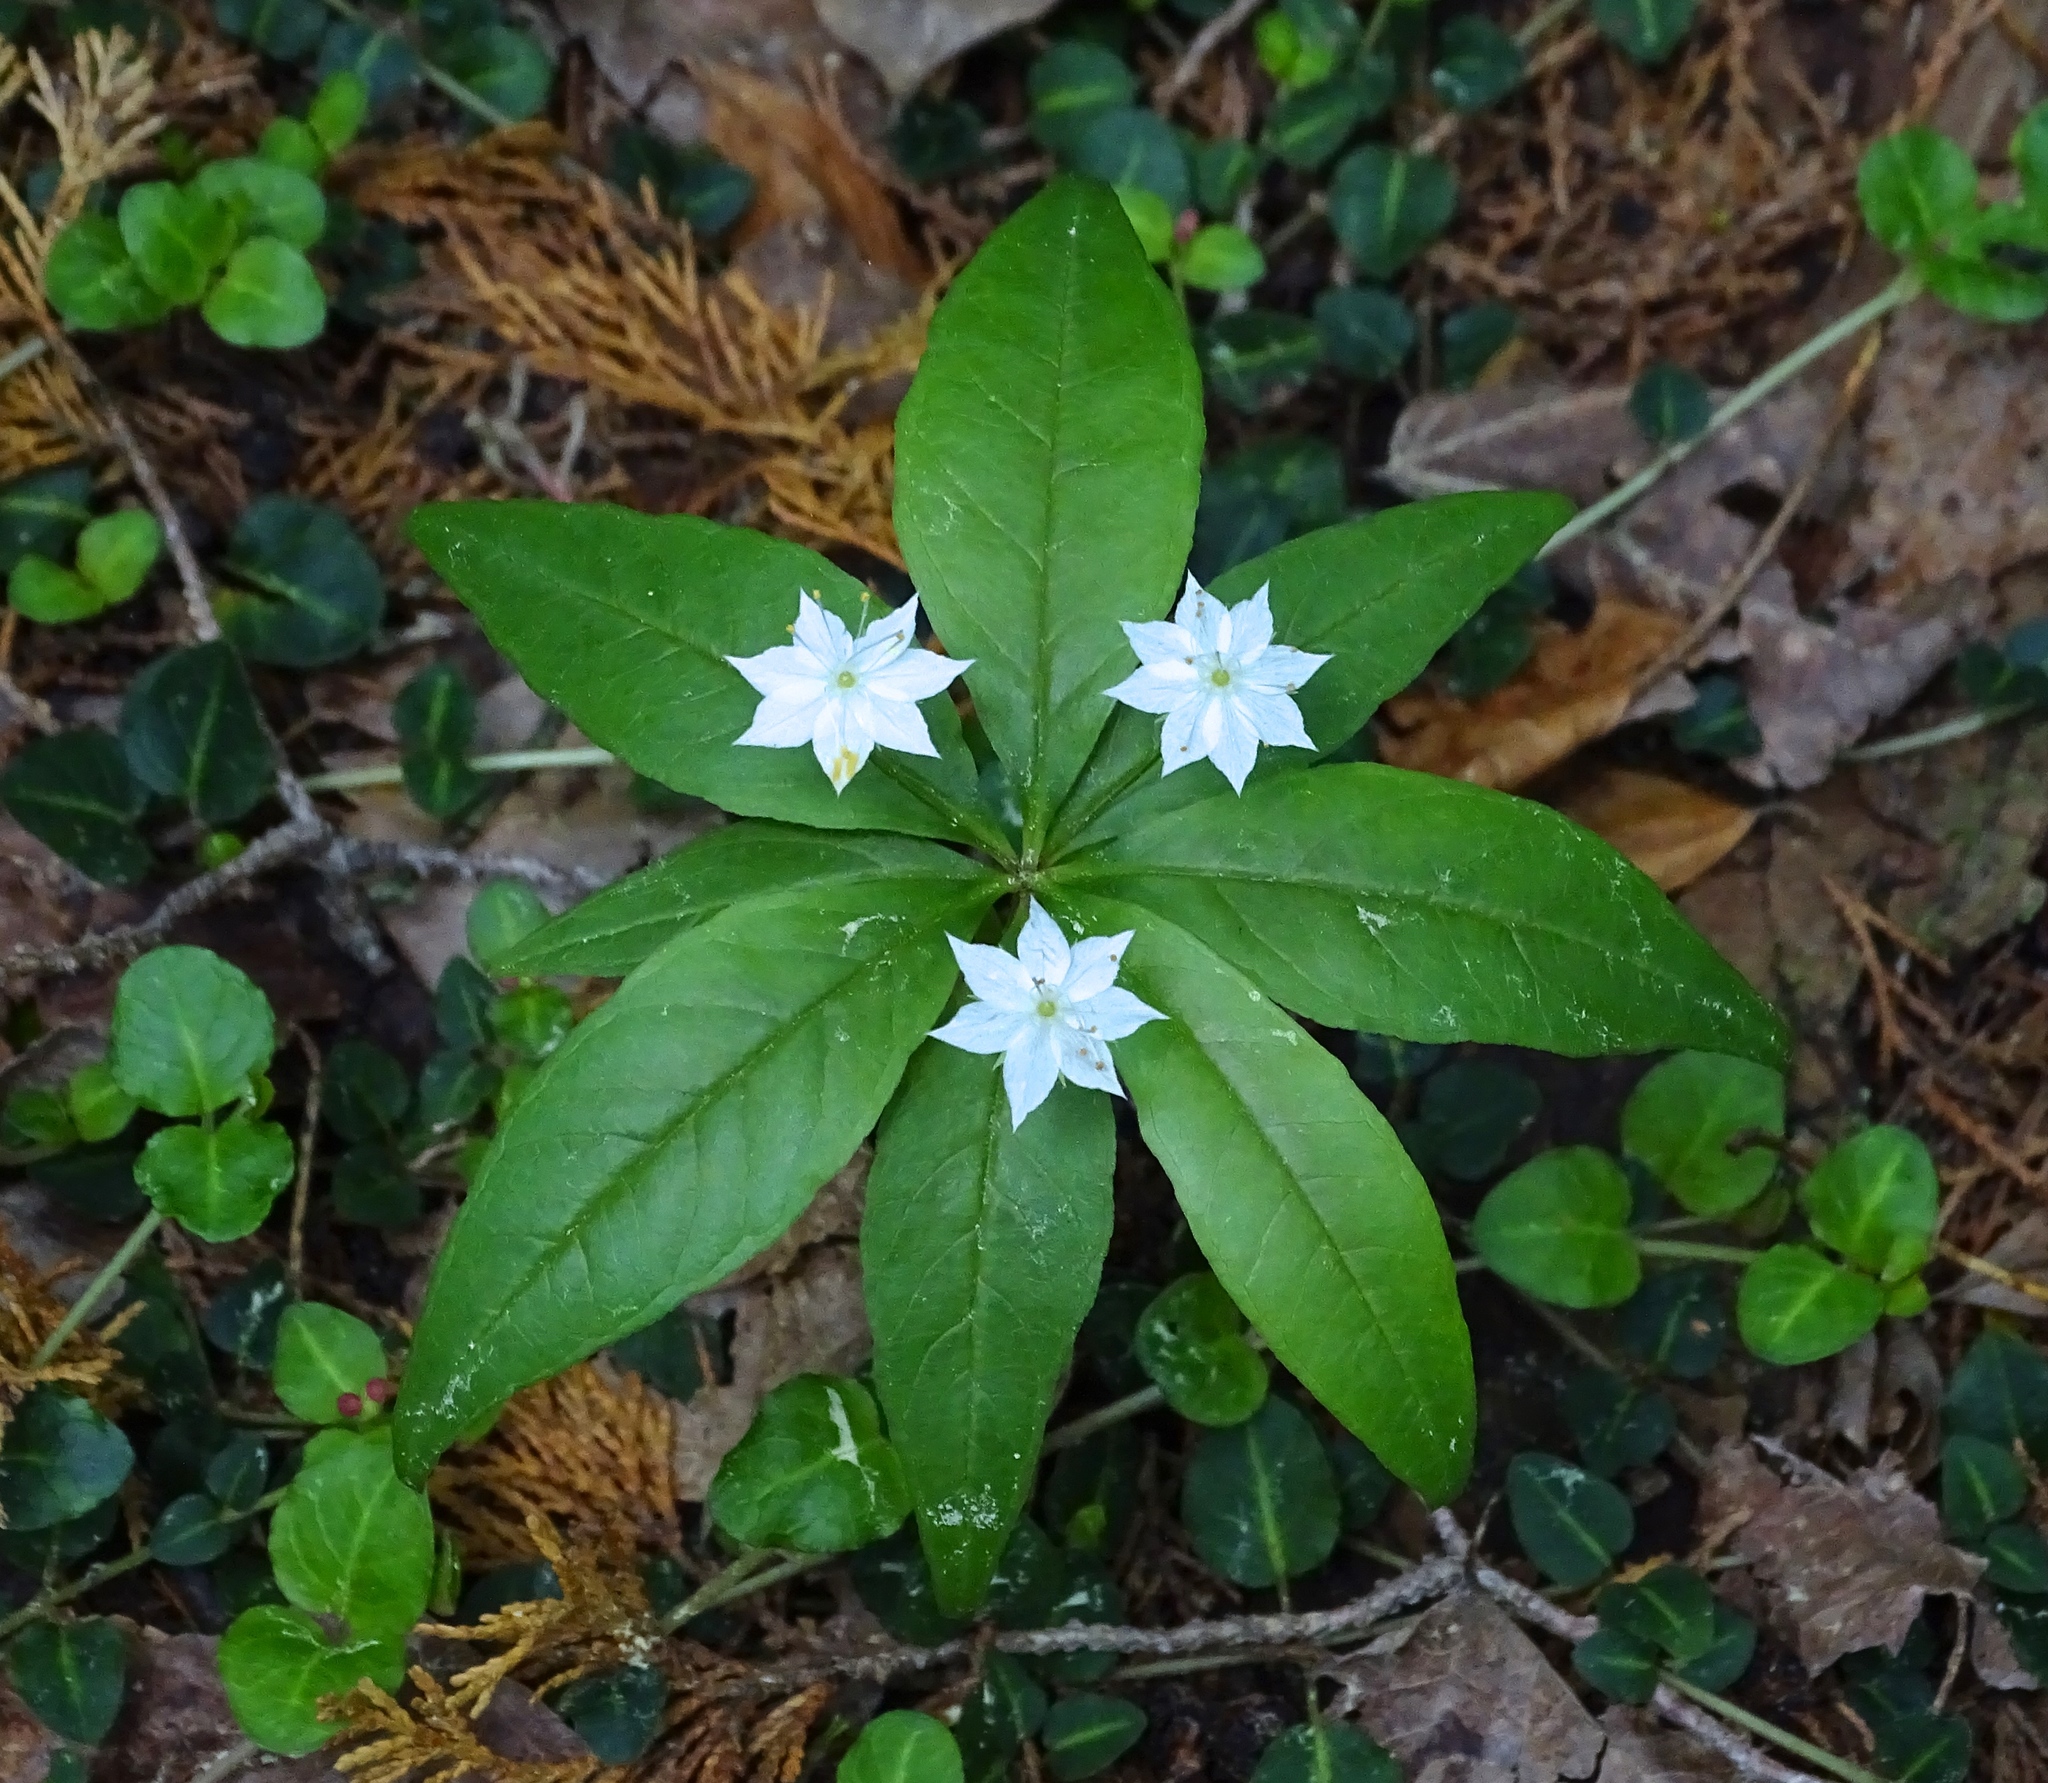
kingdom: Plantae
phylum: Tracheophyta
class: Magnoliopsida
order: Ericales
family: Primulaceae
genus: Lysimachia
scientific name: Lysimachia borealis
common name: American starflower
